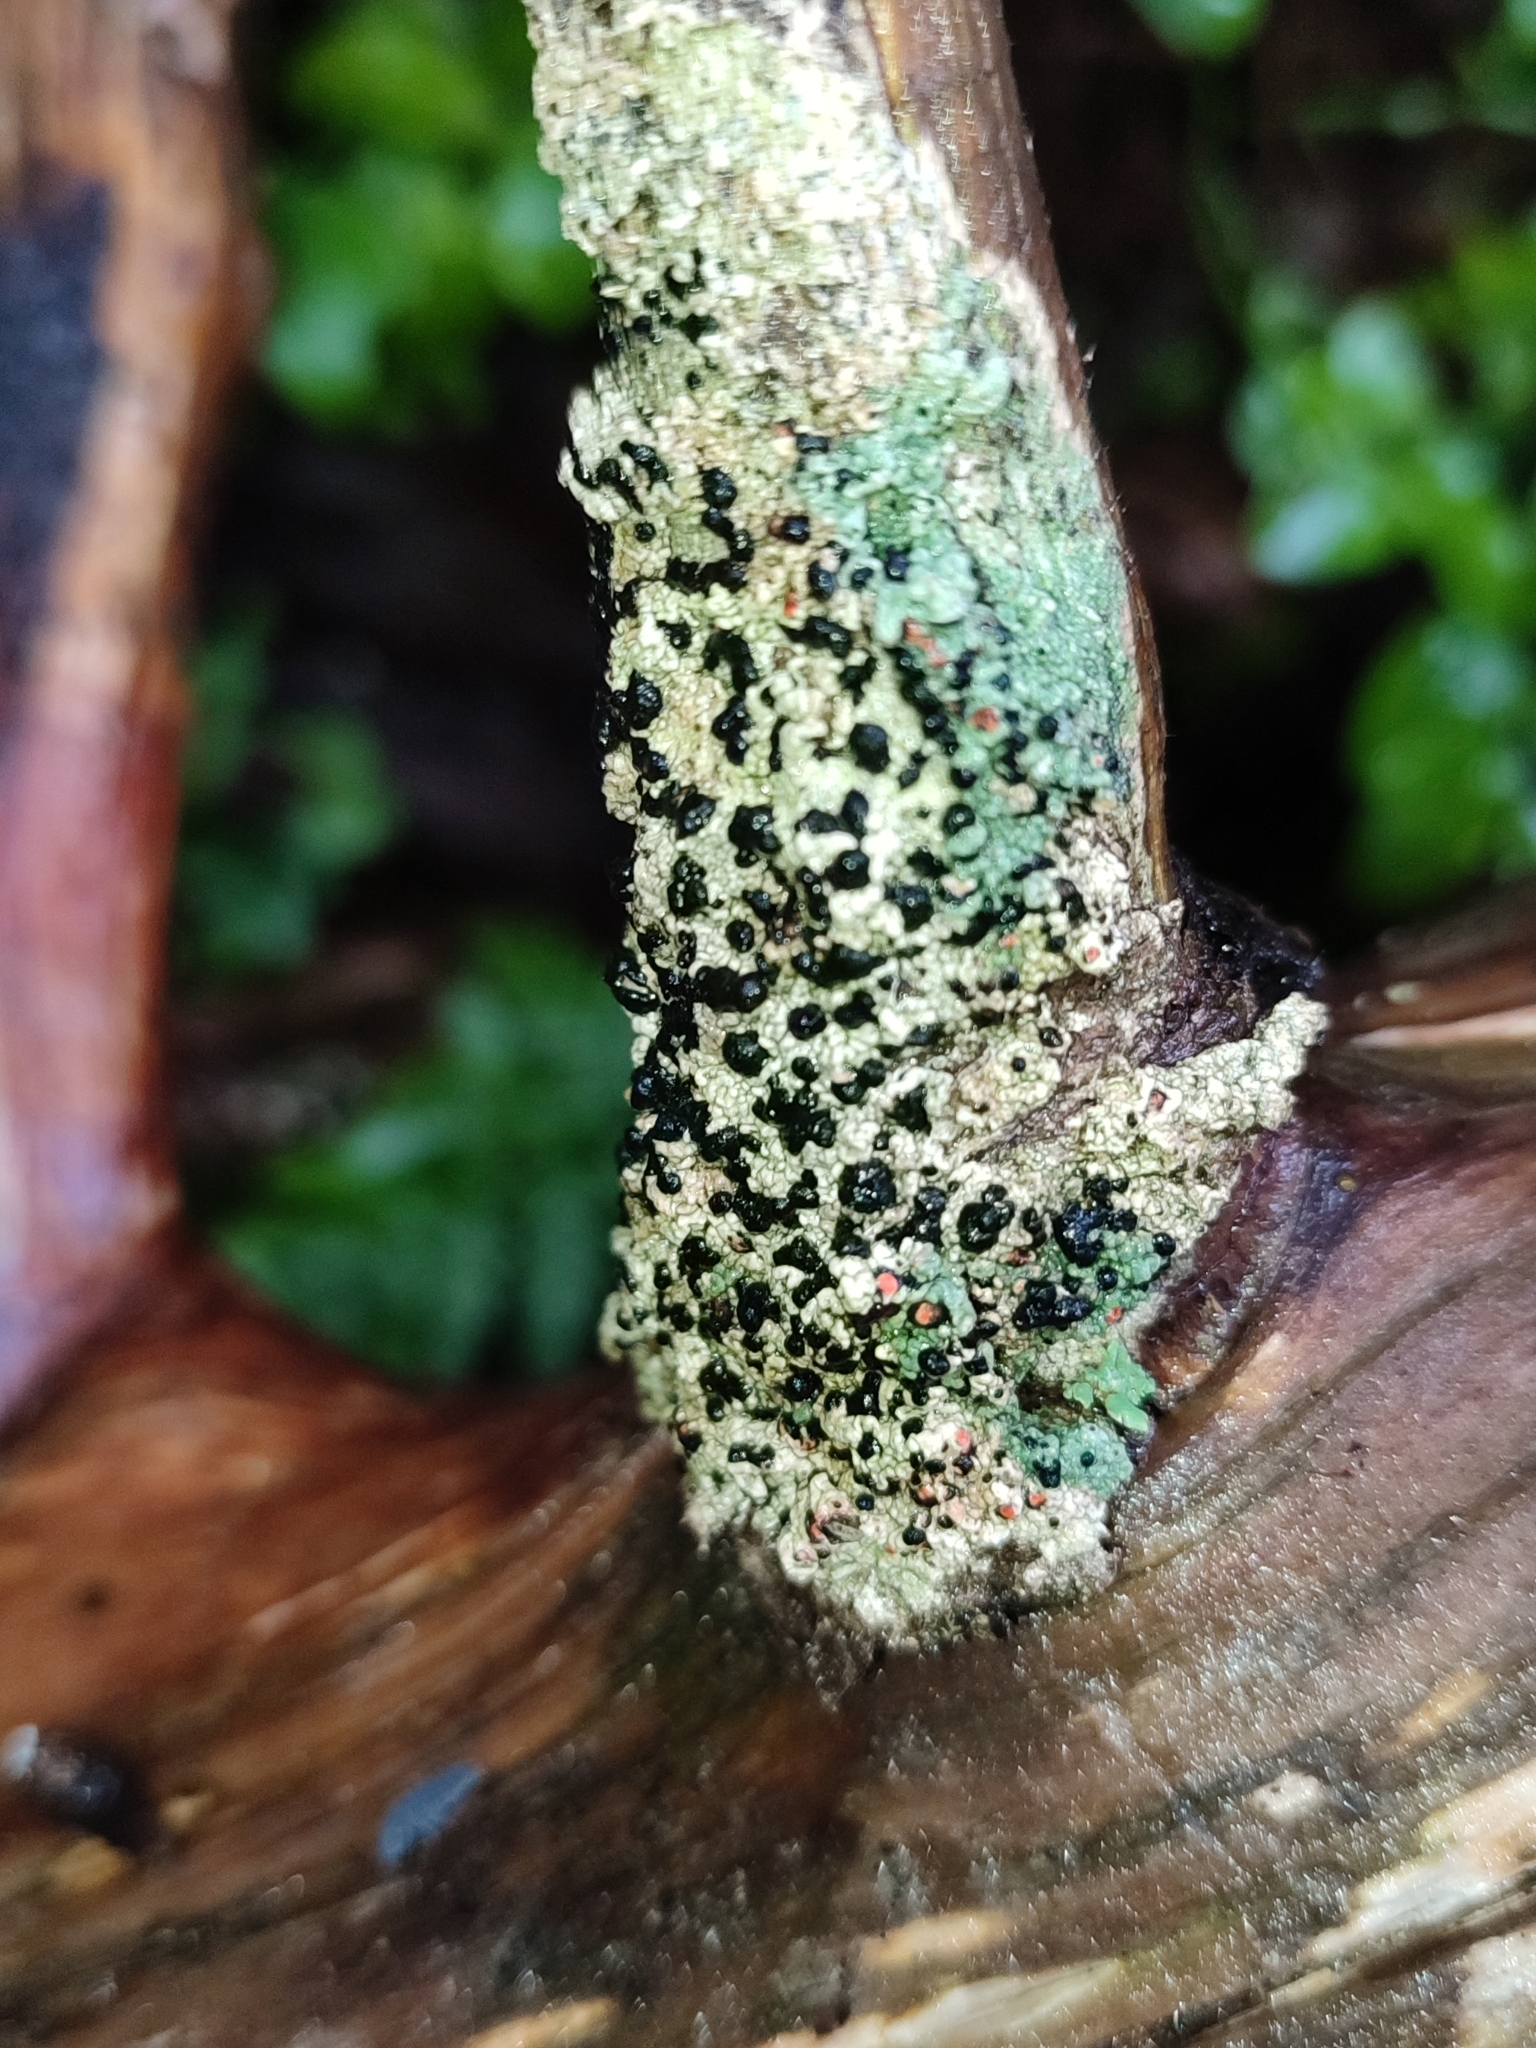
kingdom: Fungi
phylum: Ascomycota
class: Lecanoromycetes
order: Lecanorales
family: Tephromelataceae
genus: Mycoblastus
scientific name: Mycoblastus sanguinarius
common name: Bloody-heart lichen
